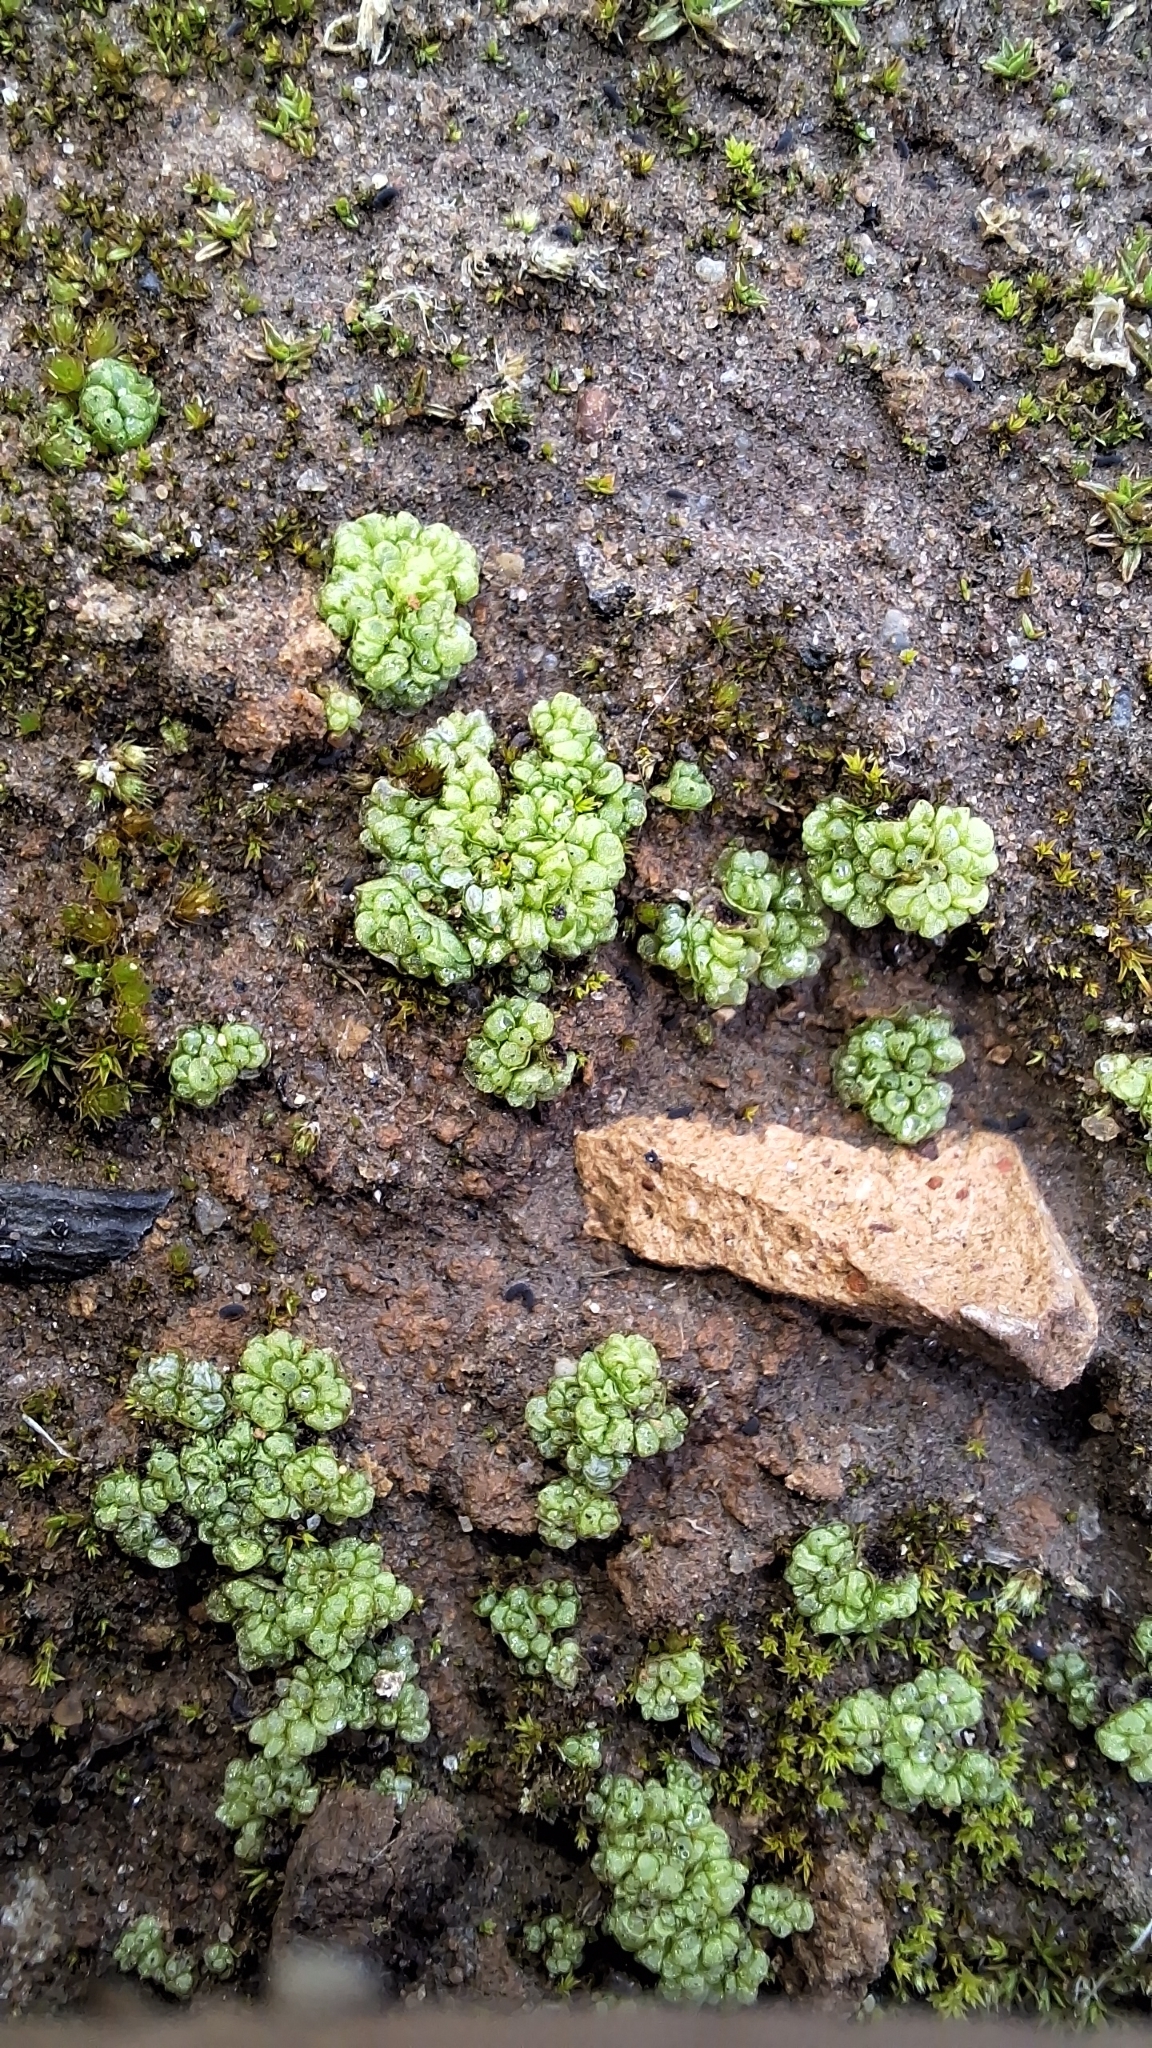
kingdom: Plantae
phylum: Marchantiophyta
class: Marchantiopsida
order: Sphaerocarpales
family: Sphaerocarpaceae
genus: Sphaerocarpos
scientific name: Sphaerocarpos texanus
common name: Texas balloonwort
